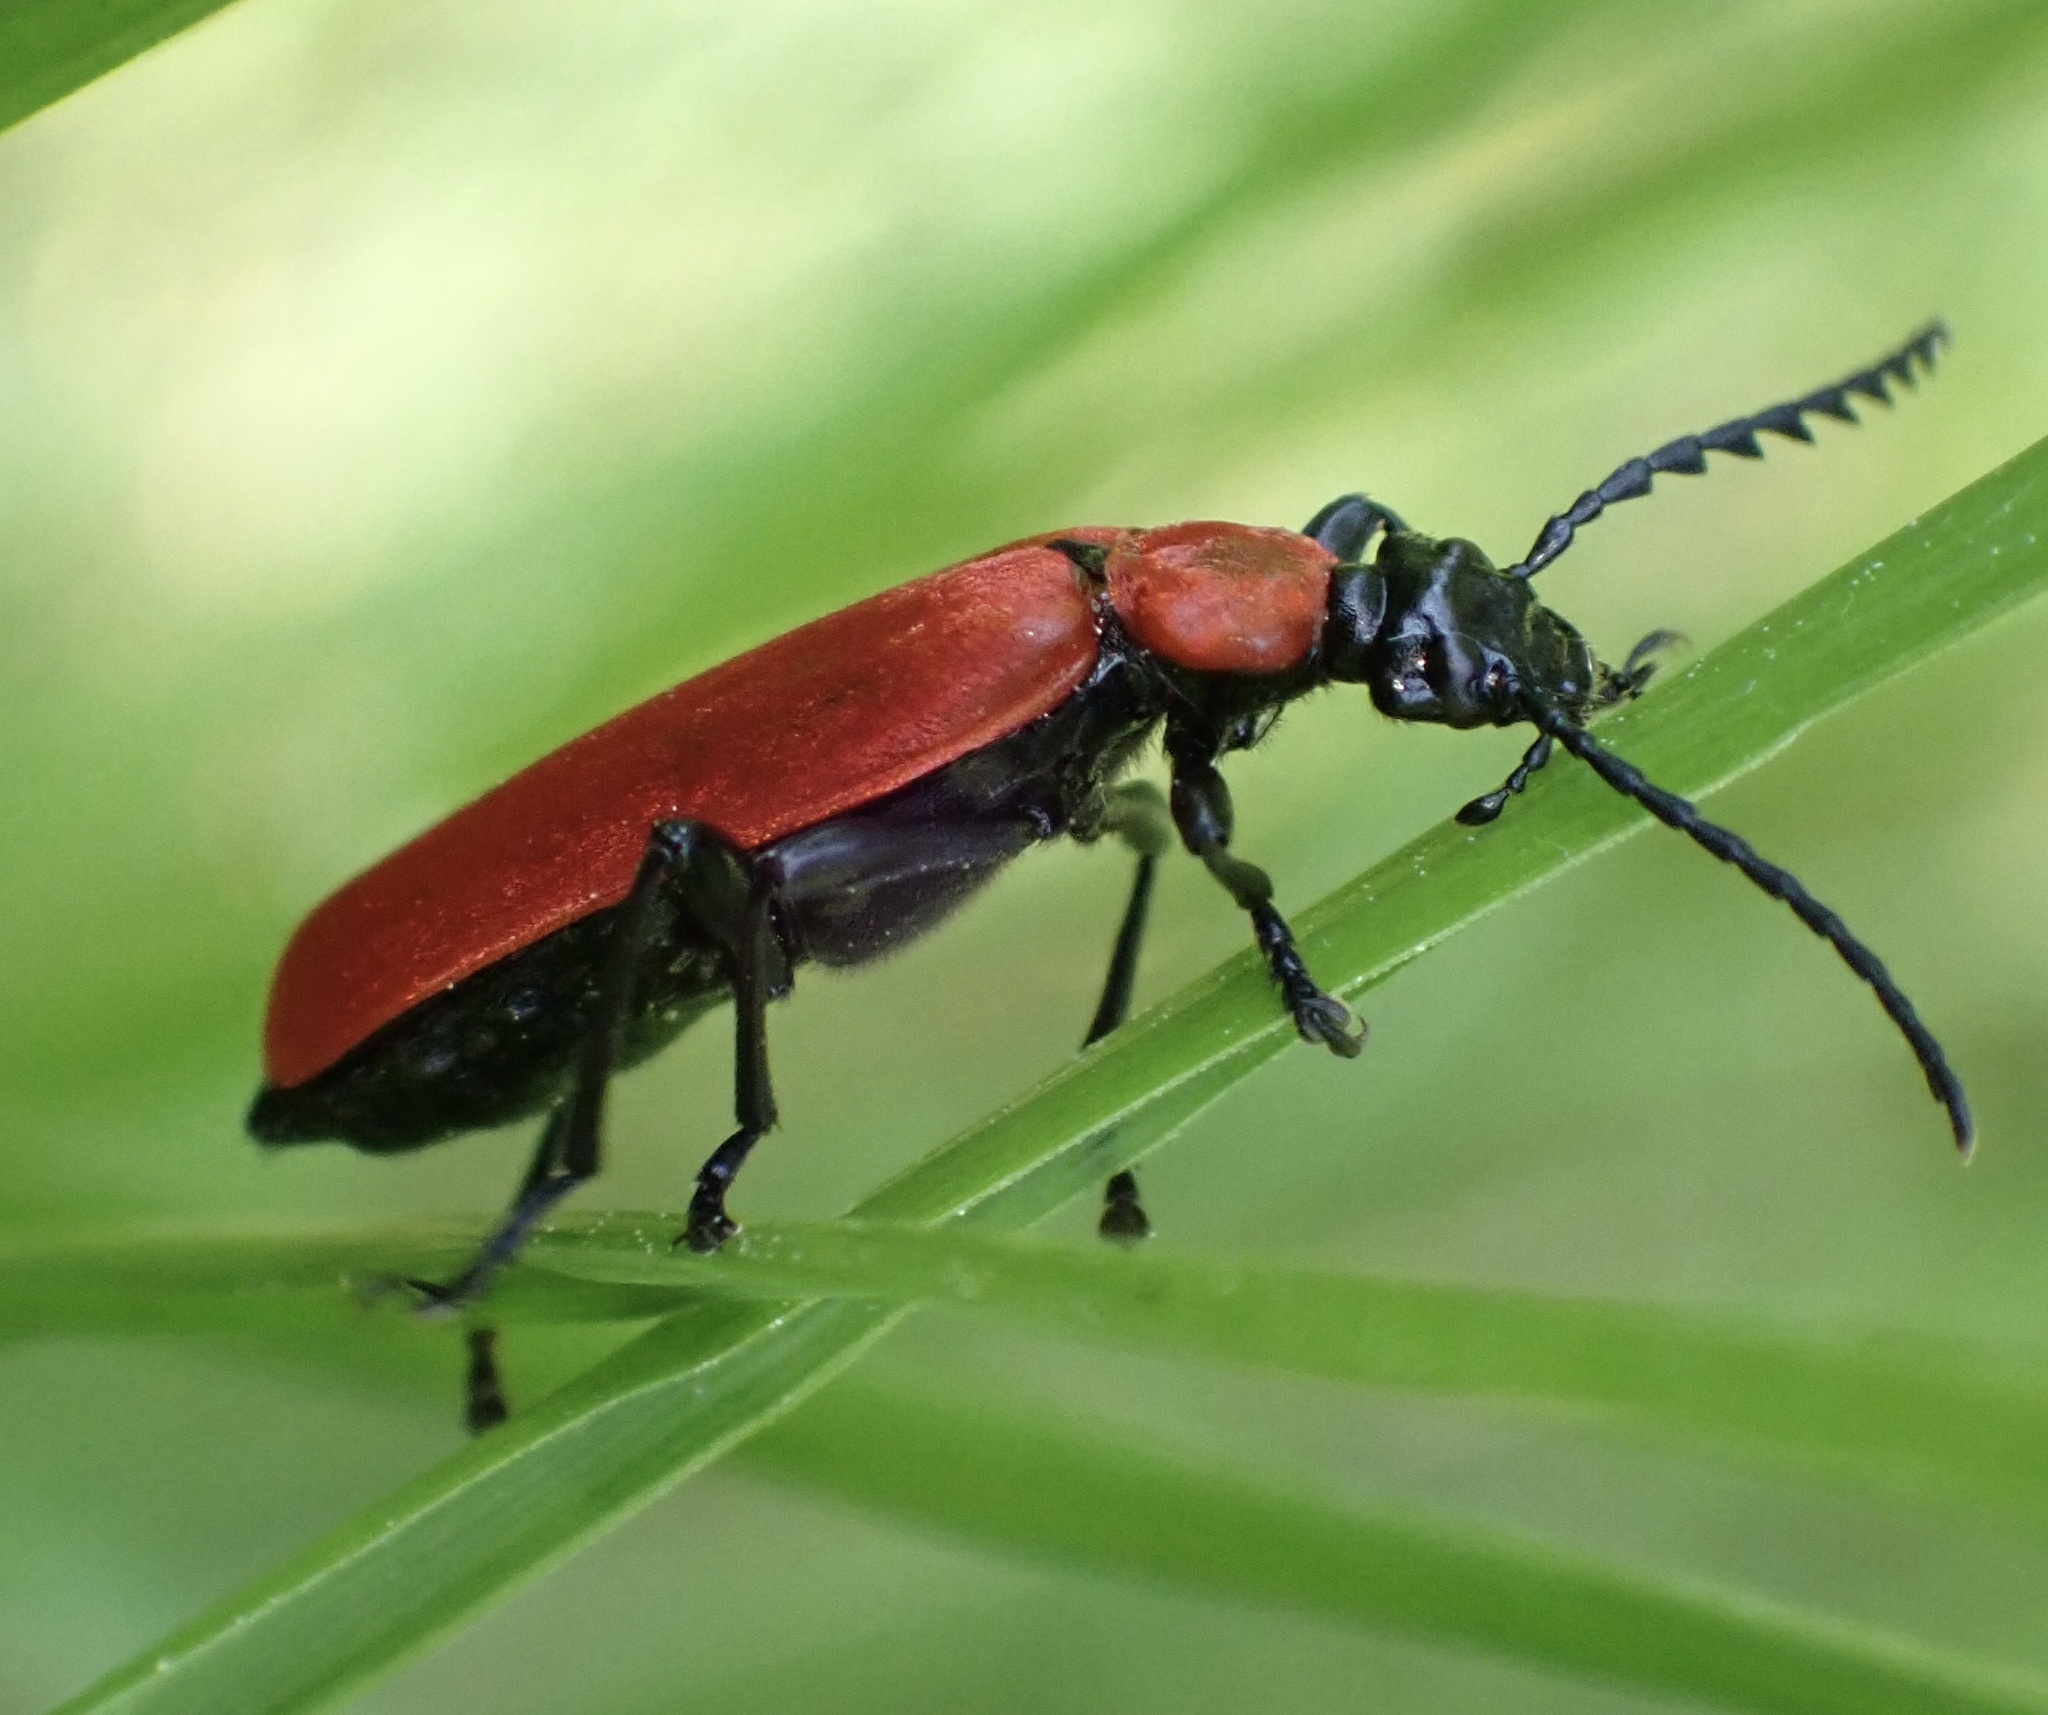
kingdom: Animalia
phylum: Arthropoda
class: Insecta
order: Coleoptera
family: Pyrochroidae
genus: Pyrochroa
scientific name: Pyrochroa coccinea
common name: Black-headed cardinal beetle
